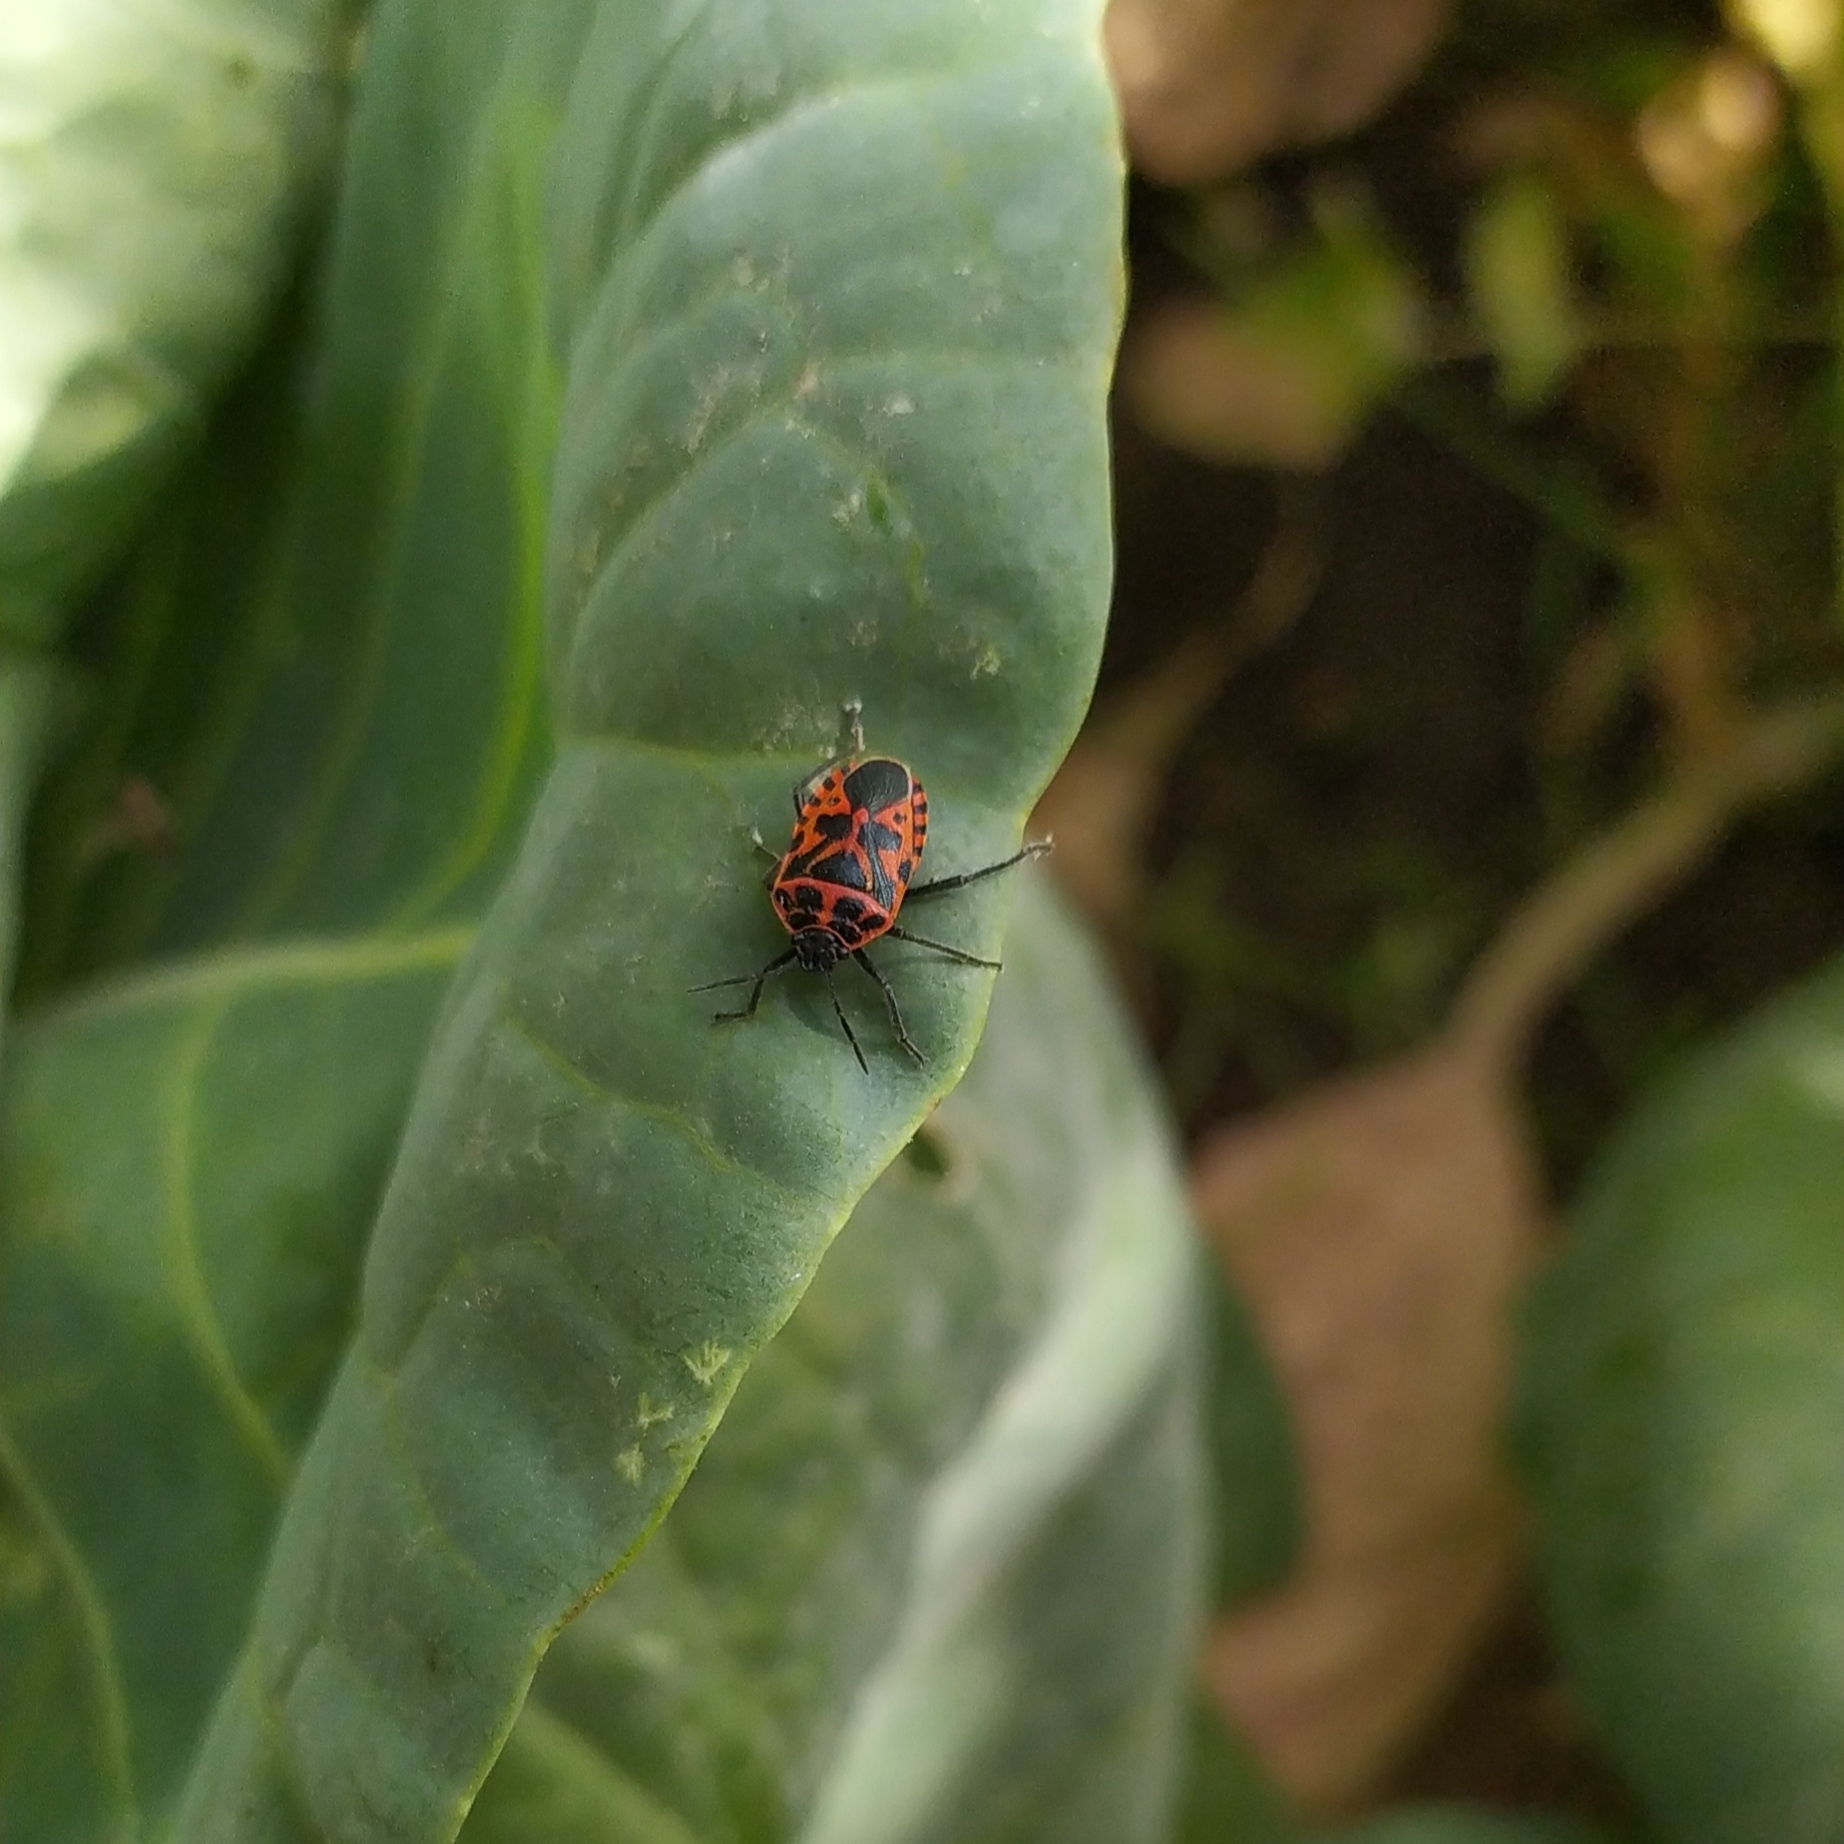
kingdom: Animalia
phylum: Arthropoda
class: Insecta
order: Hemiptera
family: Pentatomidae
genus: Eurydema
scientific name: Eurydema ventralis
